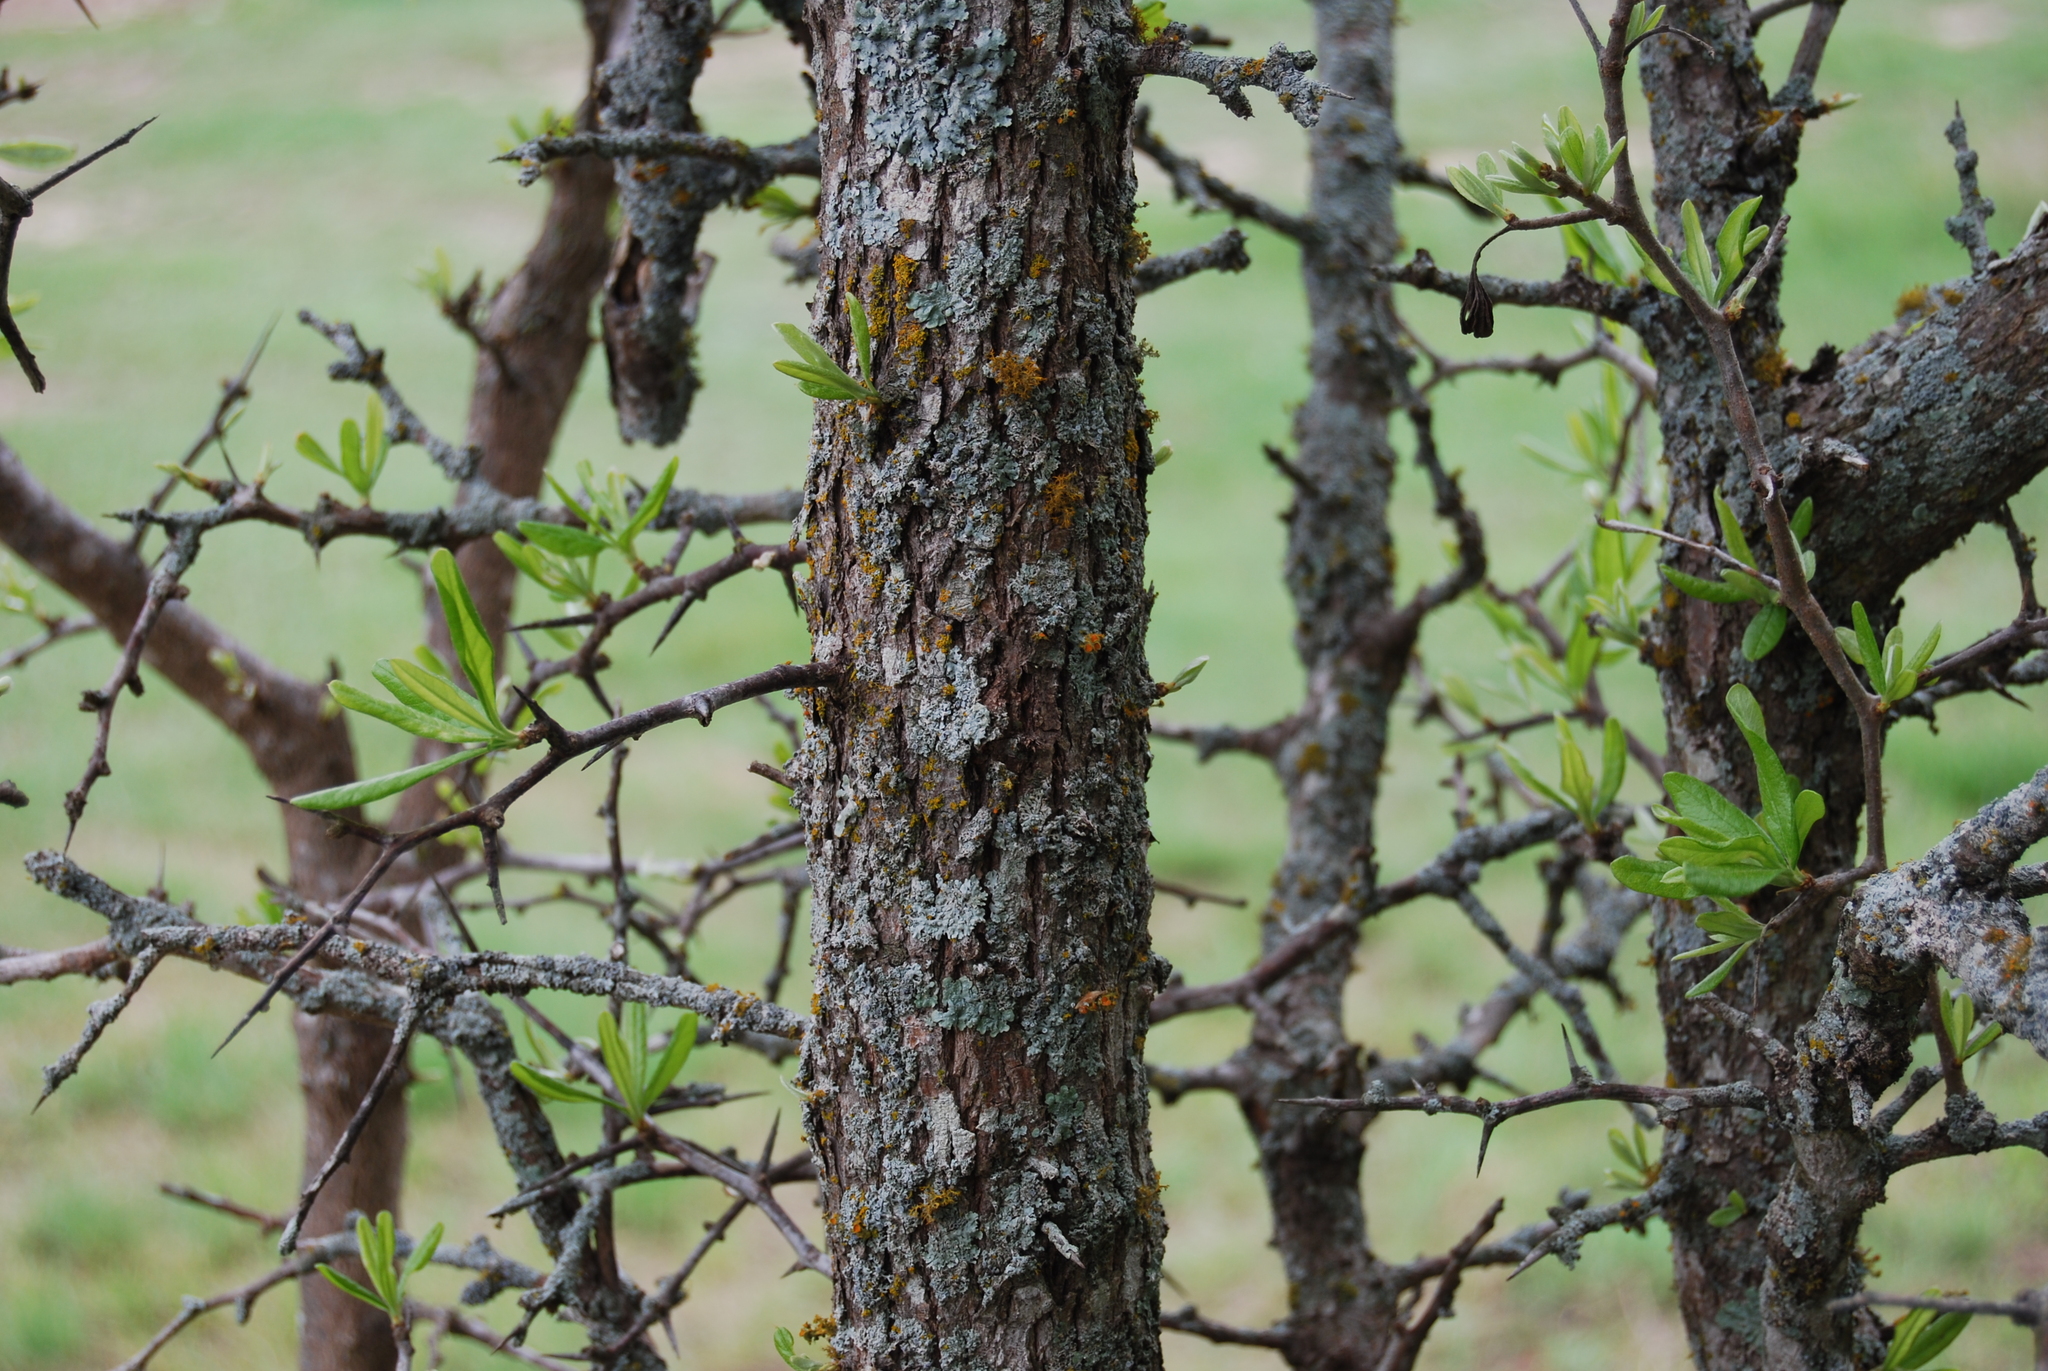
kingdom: Plantae
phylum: Tracheophyta
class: Magnoliopsida
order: Ericales
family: Sapotaceae
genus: Sideroxylon
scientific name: Sideroxylon lanuginosum
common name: Chittamwood
